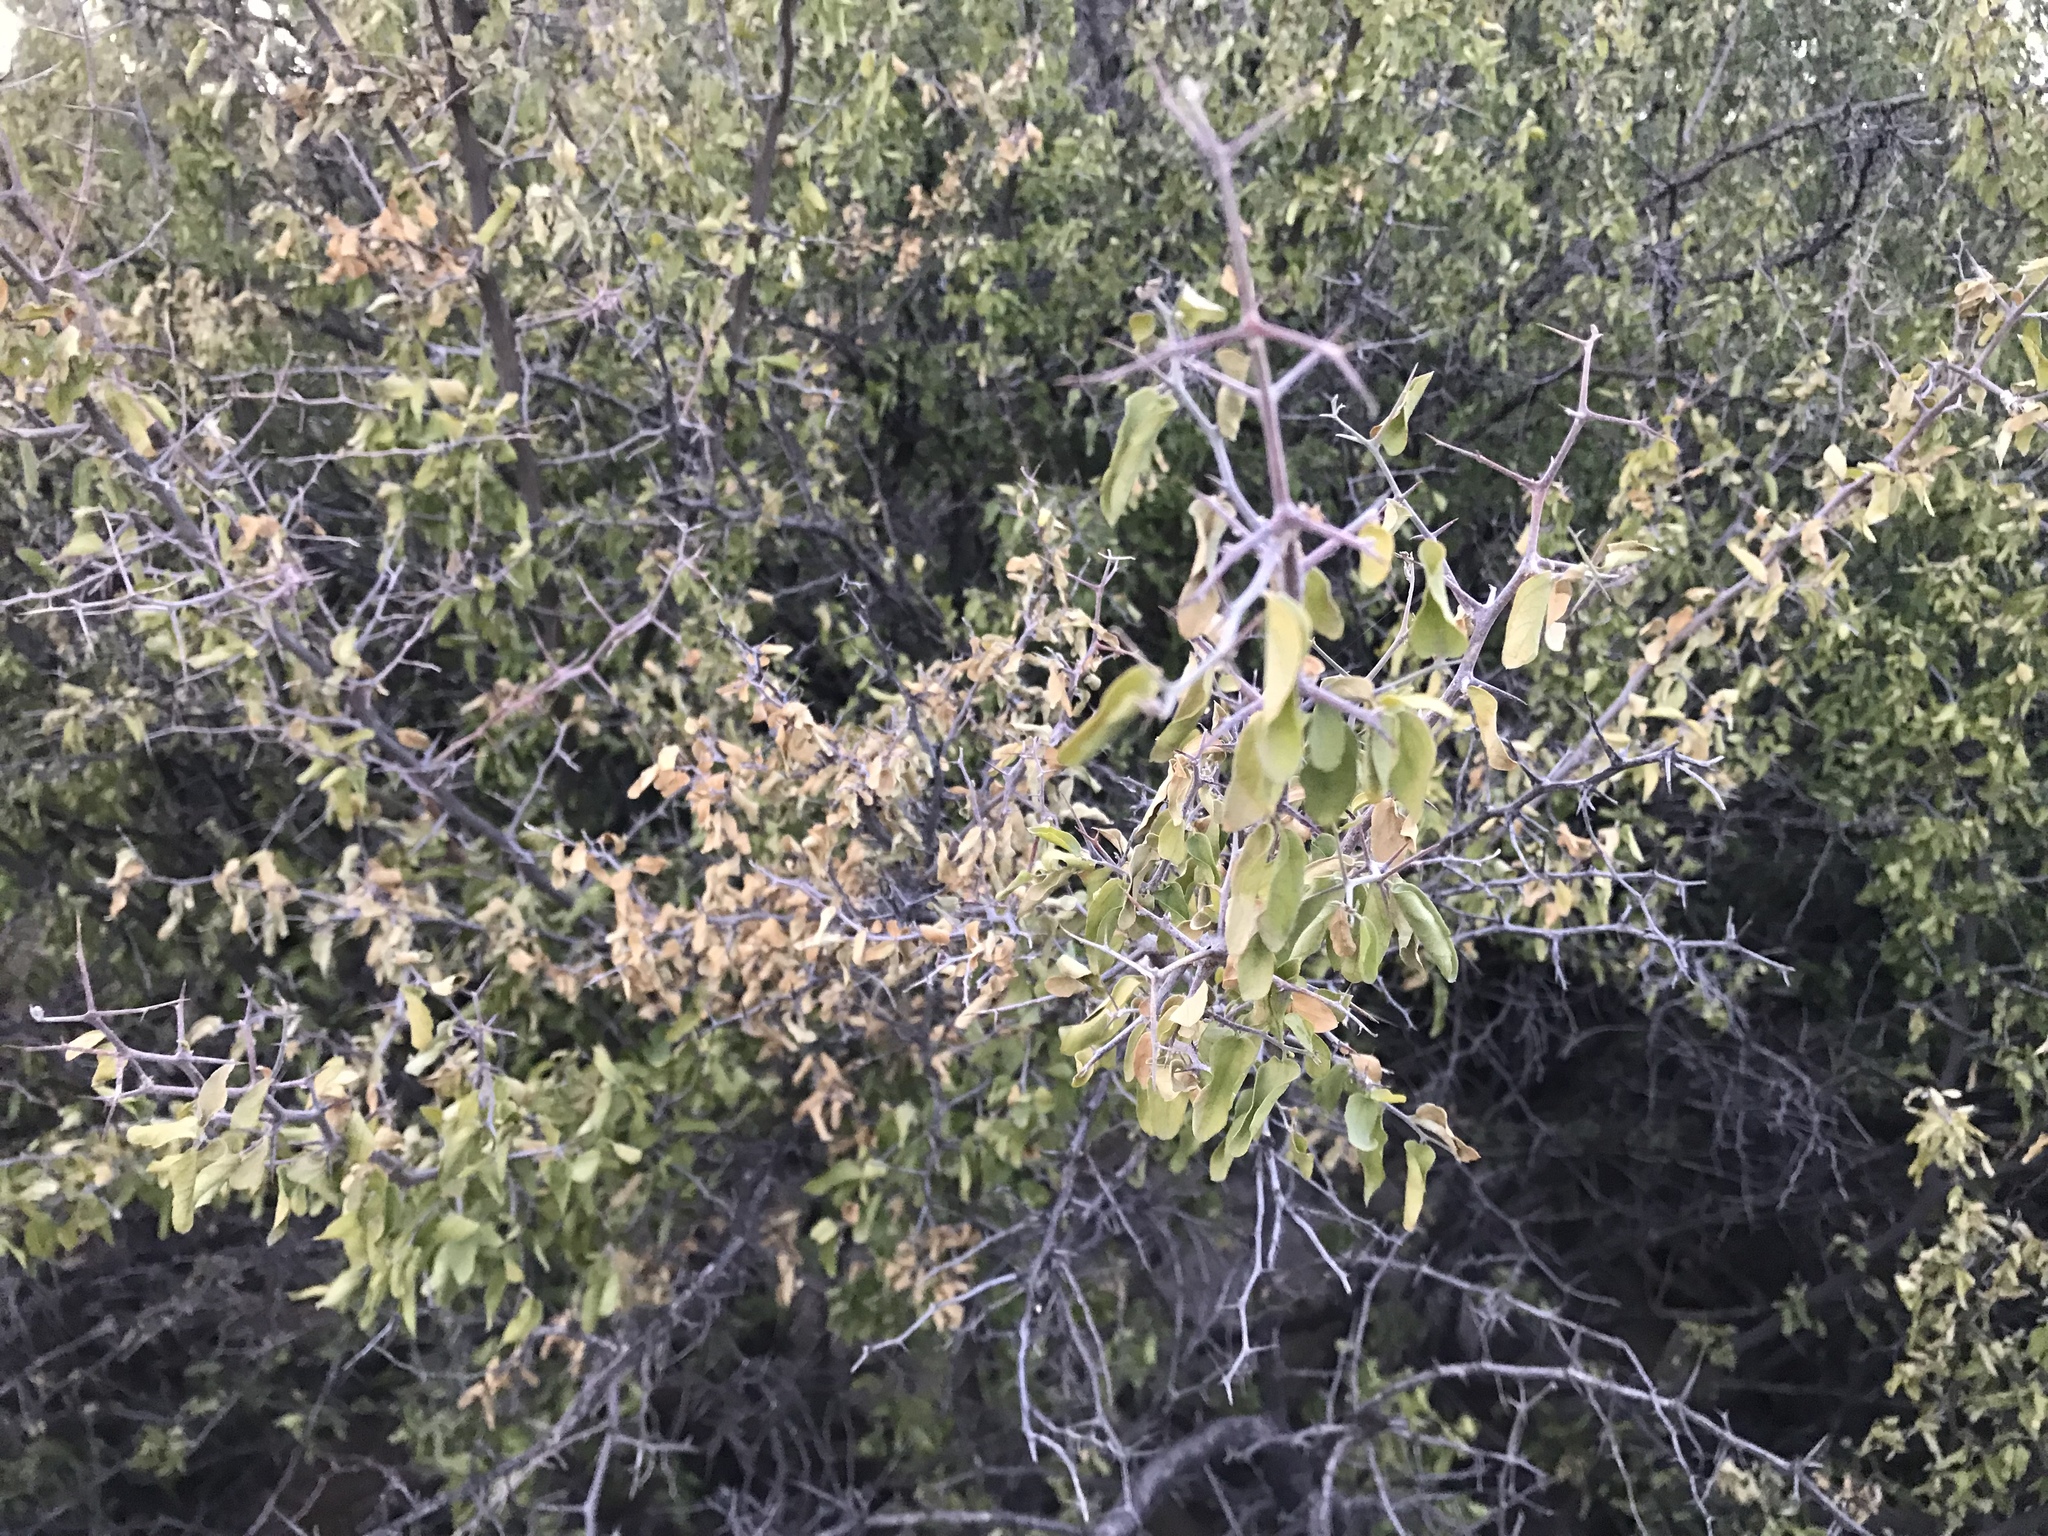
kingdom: Plantae
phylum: Tracheophyta
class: Magnoliopsida
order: Rosales
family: Cannabaceae
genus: Celtis
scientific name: Celtis pallida
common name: Desert hackberry
